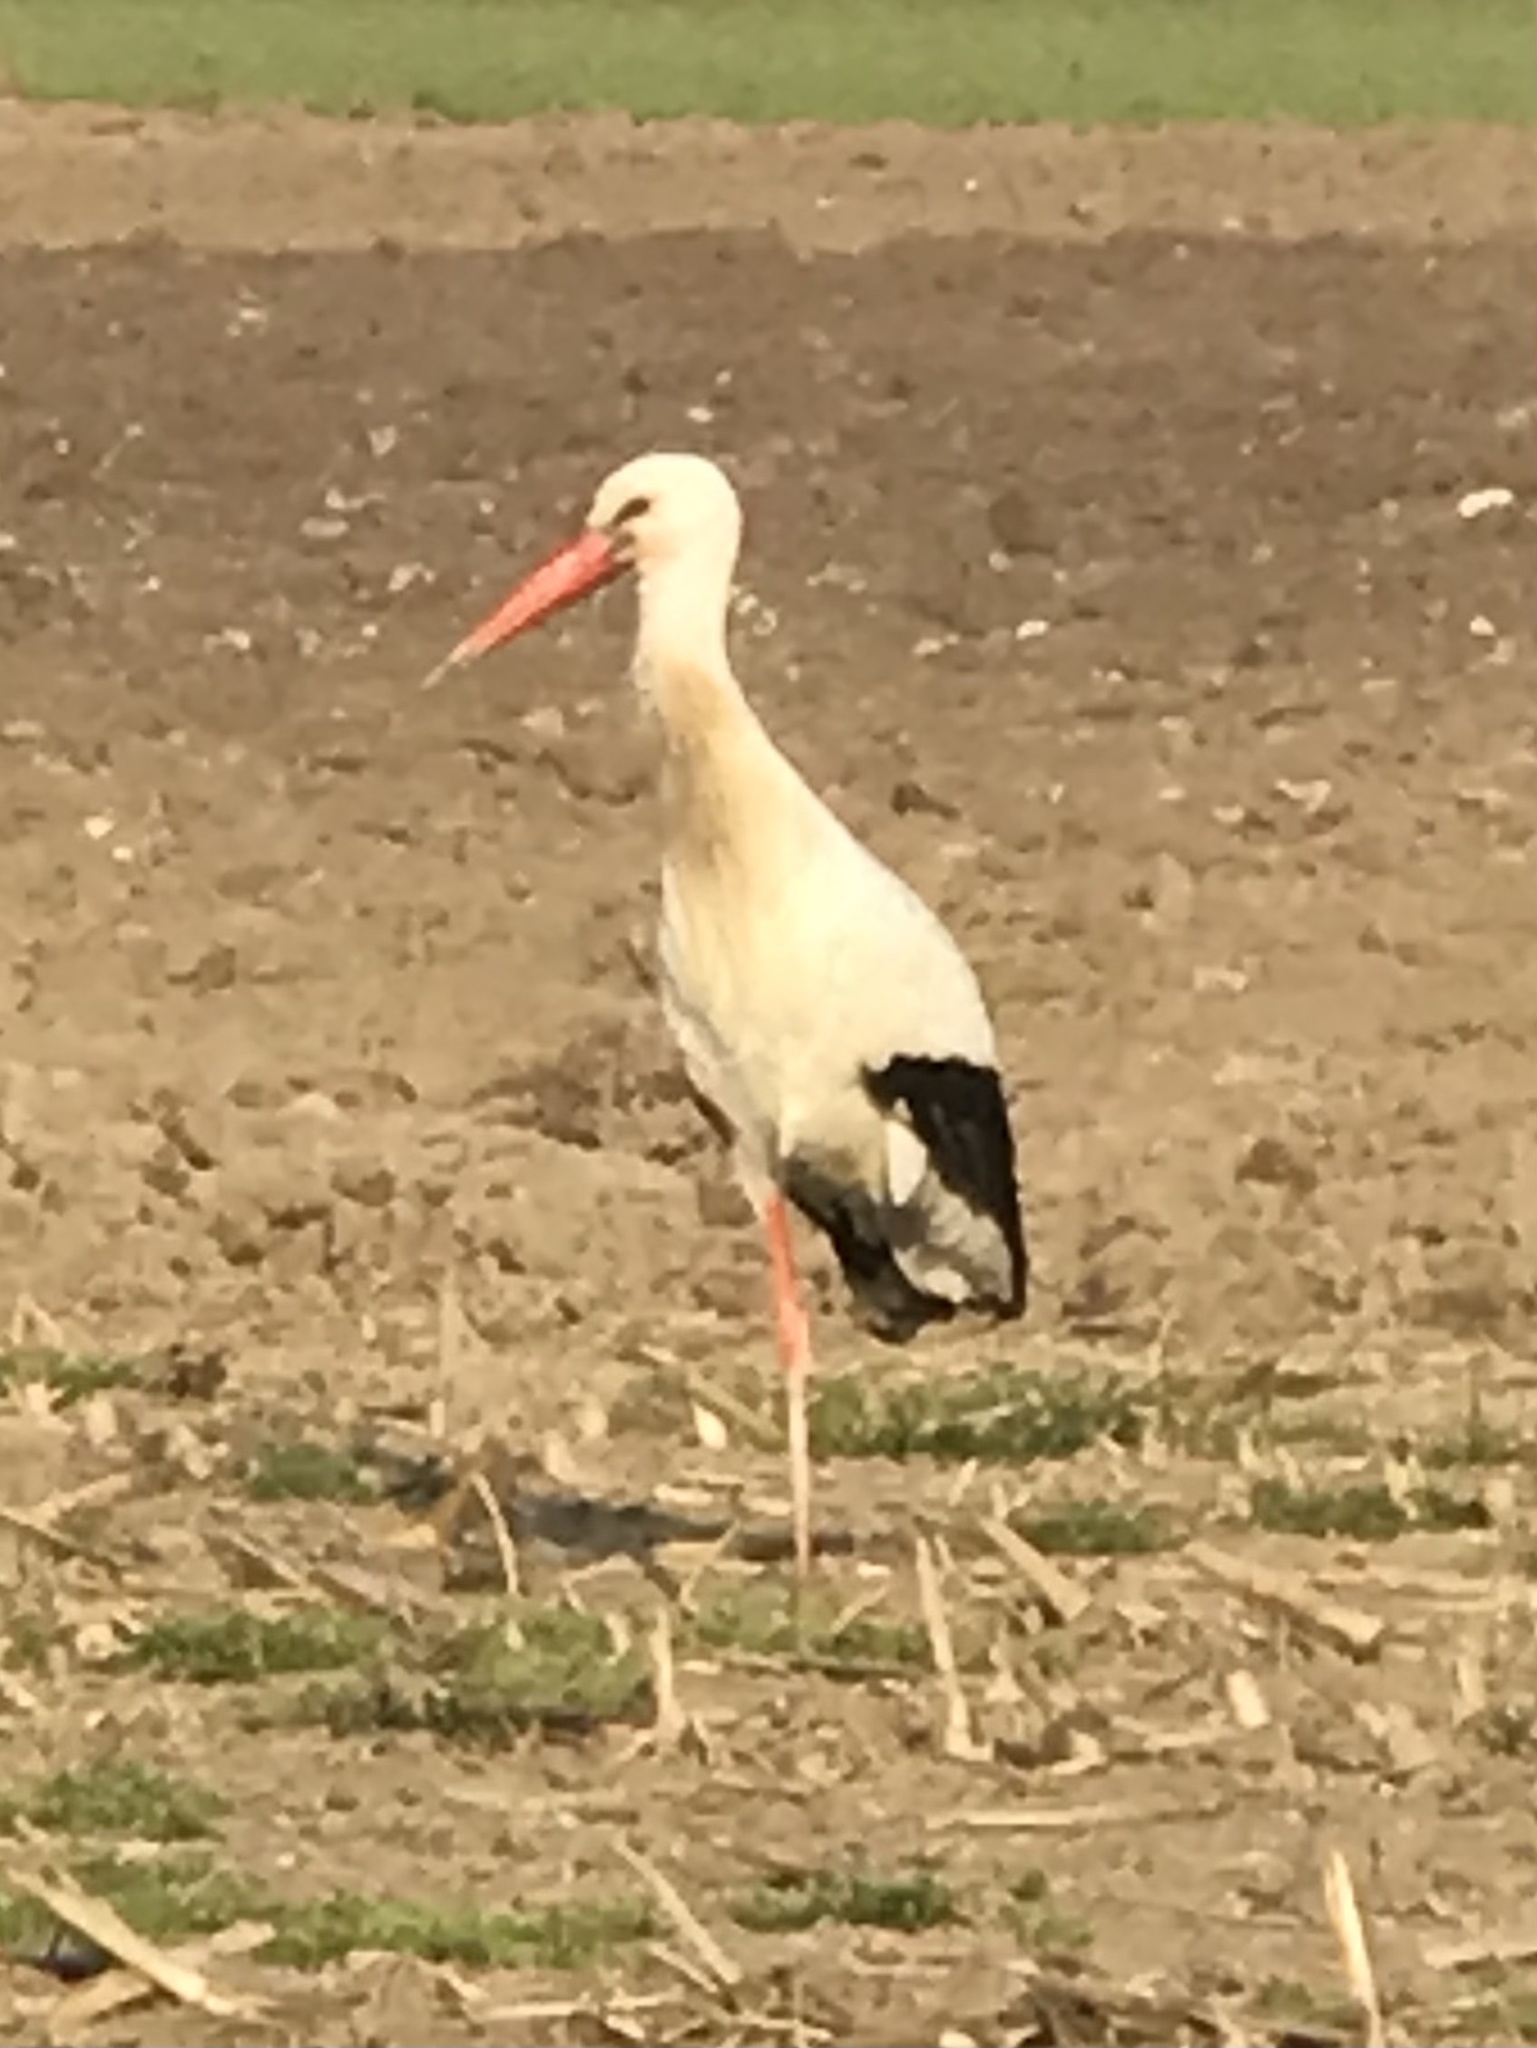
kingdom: Animalia
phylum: Chordata
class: Aves
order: Ciconiiformes
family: Ciconiidae
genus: Ciconia
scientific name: Ciconia ciconia
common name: White stork
